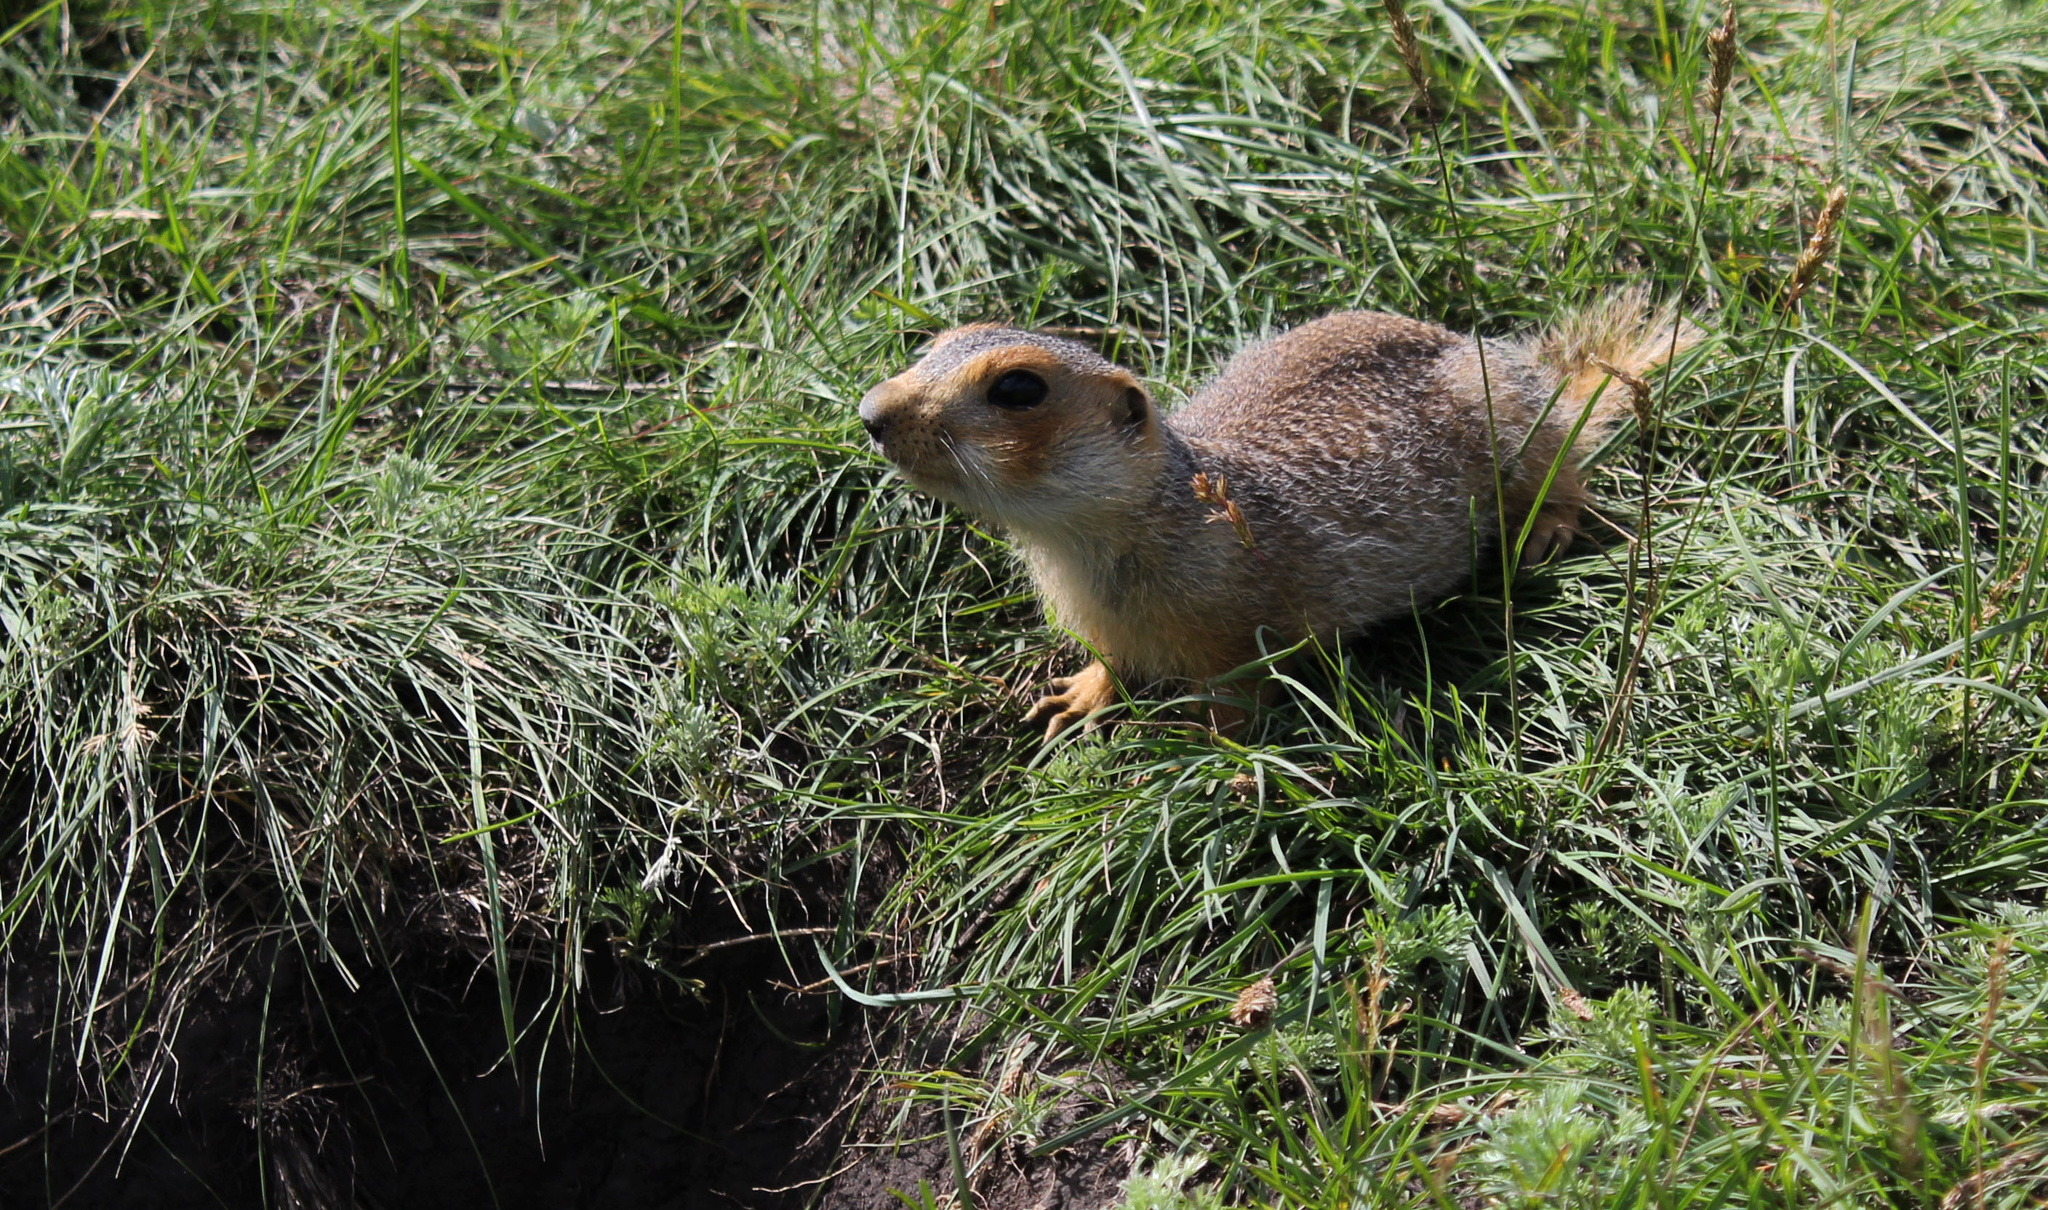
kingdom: Animalia
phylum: Chordata
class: Mammalia
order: Rodentia
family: Sciuridae
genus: Spermophilus
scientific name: Spermophilus major
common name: Russet ground squirrel
